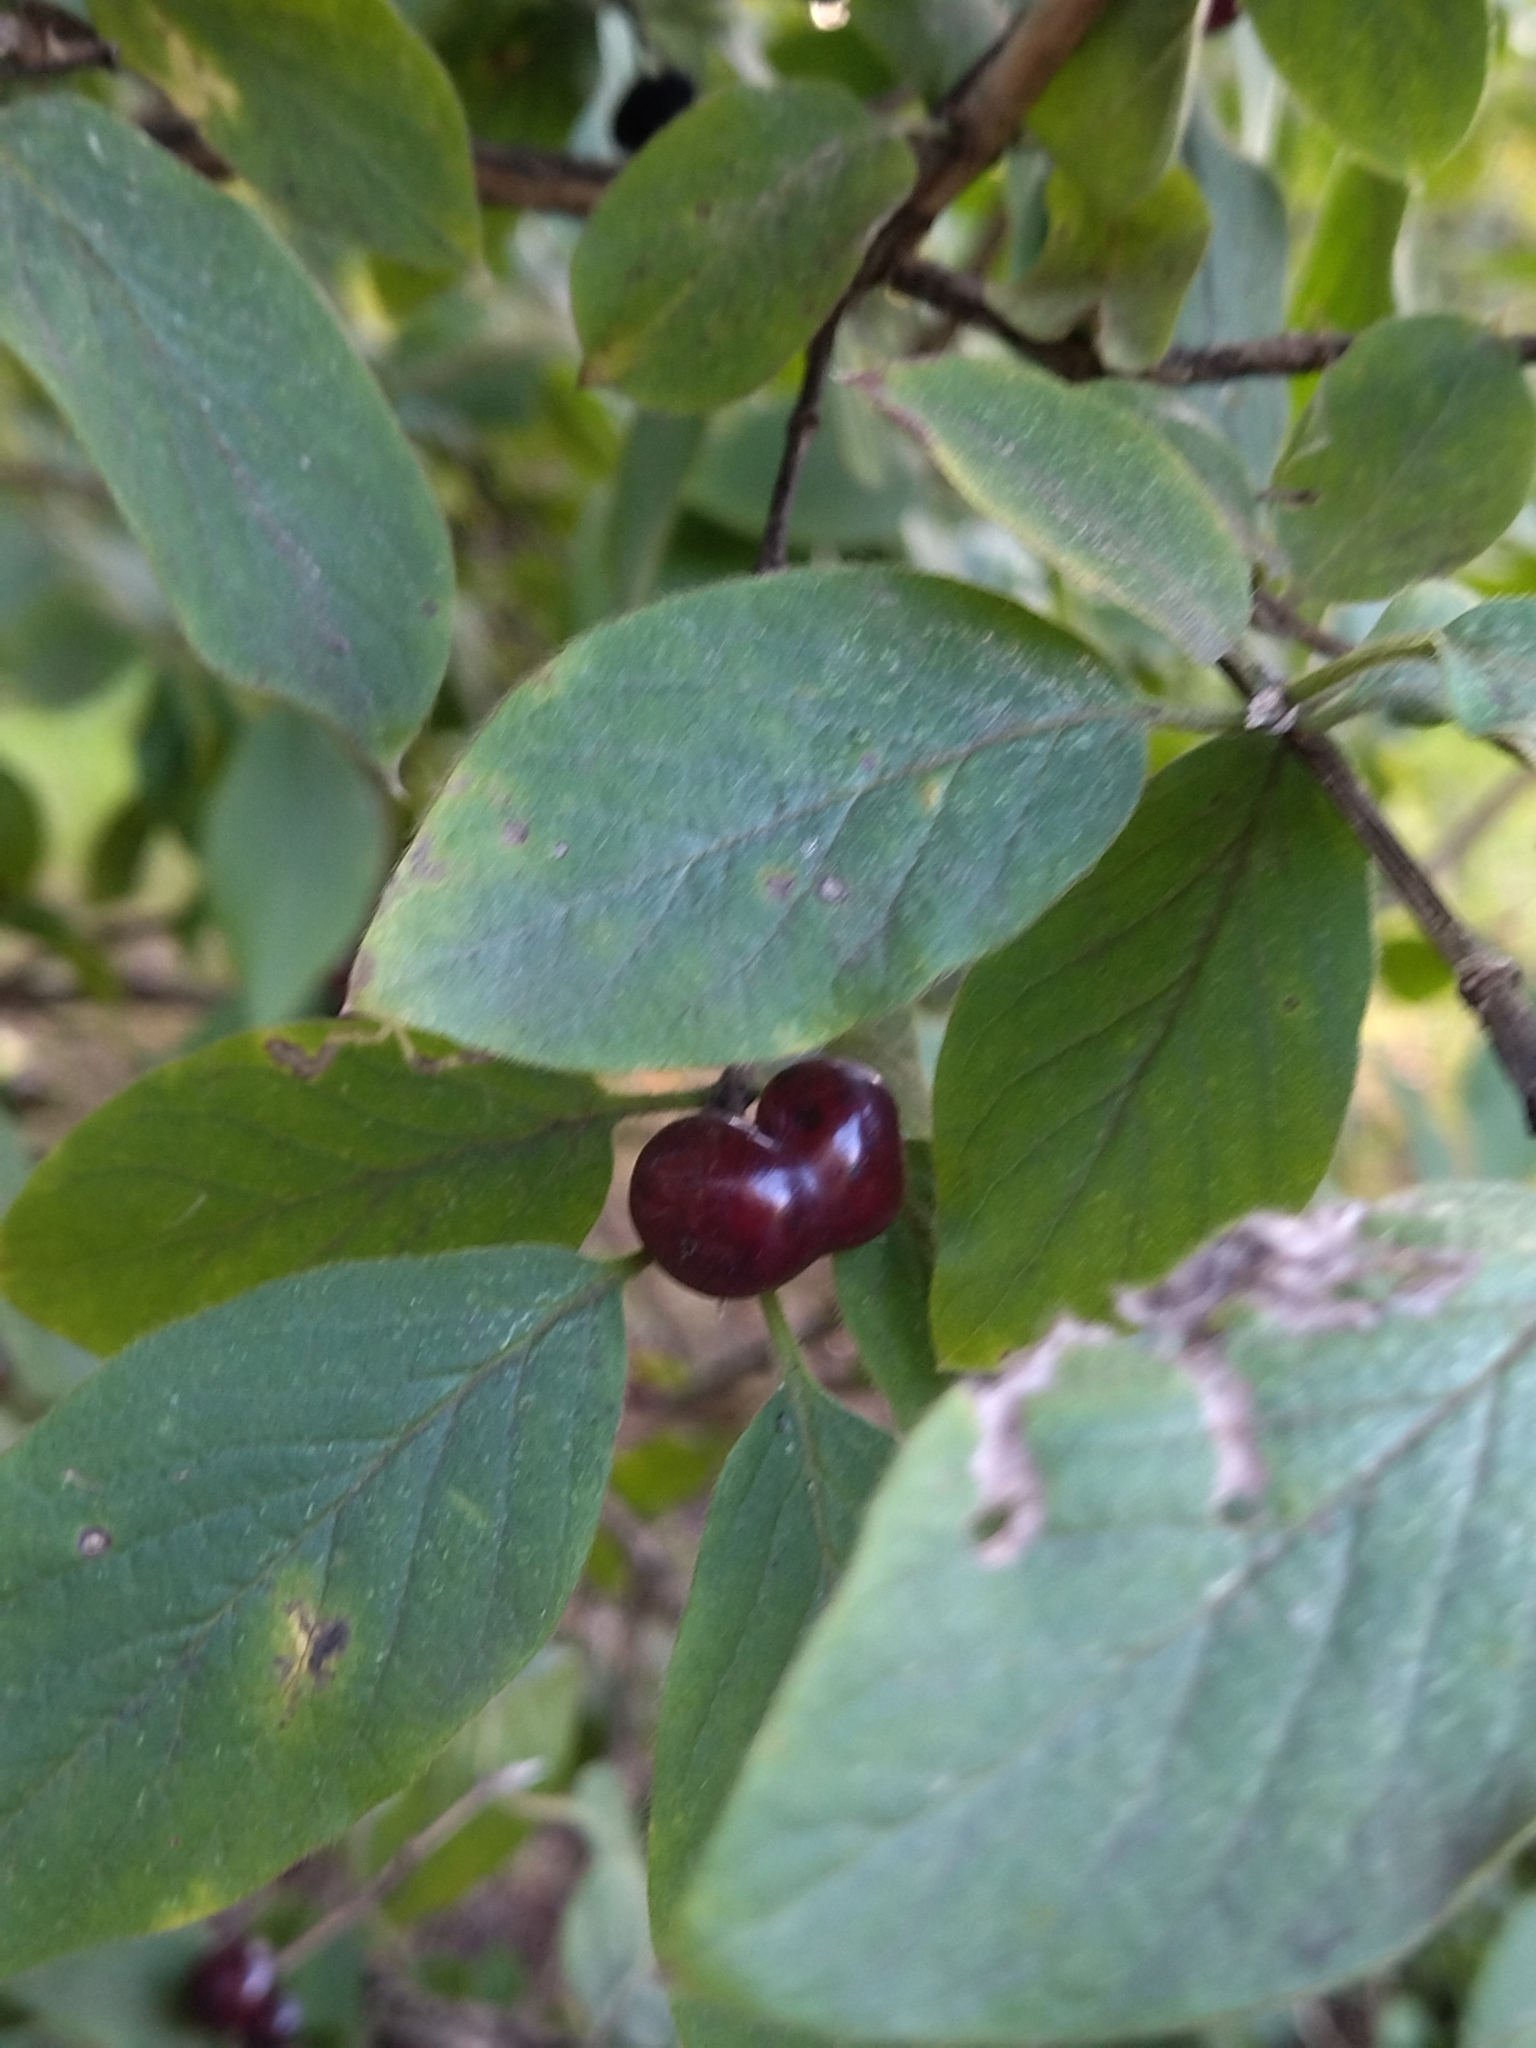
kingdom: Plantae
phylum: Tracheophyta
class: Magnoliopsida
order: Dipsacales
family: Caprifoliaceae
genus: Lonicera
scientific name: Lonicera xylosteum
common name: Fly honeysuckle
